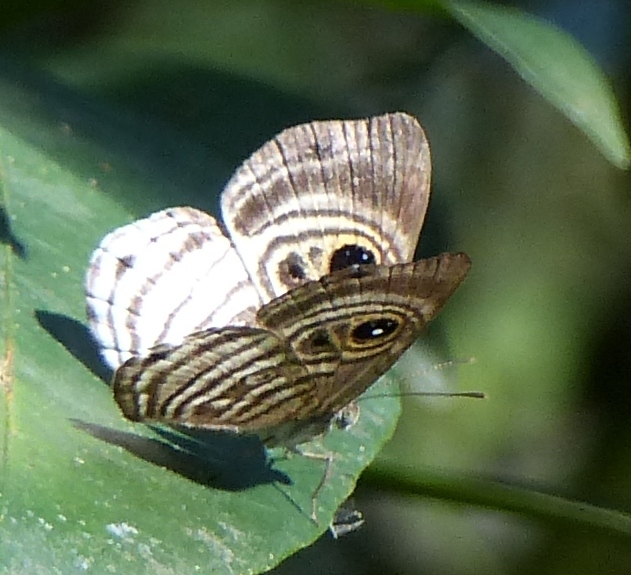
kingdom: Animalia
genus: Mesosemia
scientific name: Mesosemia minos
